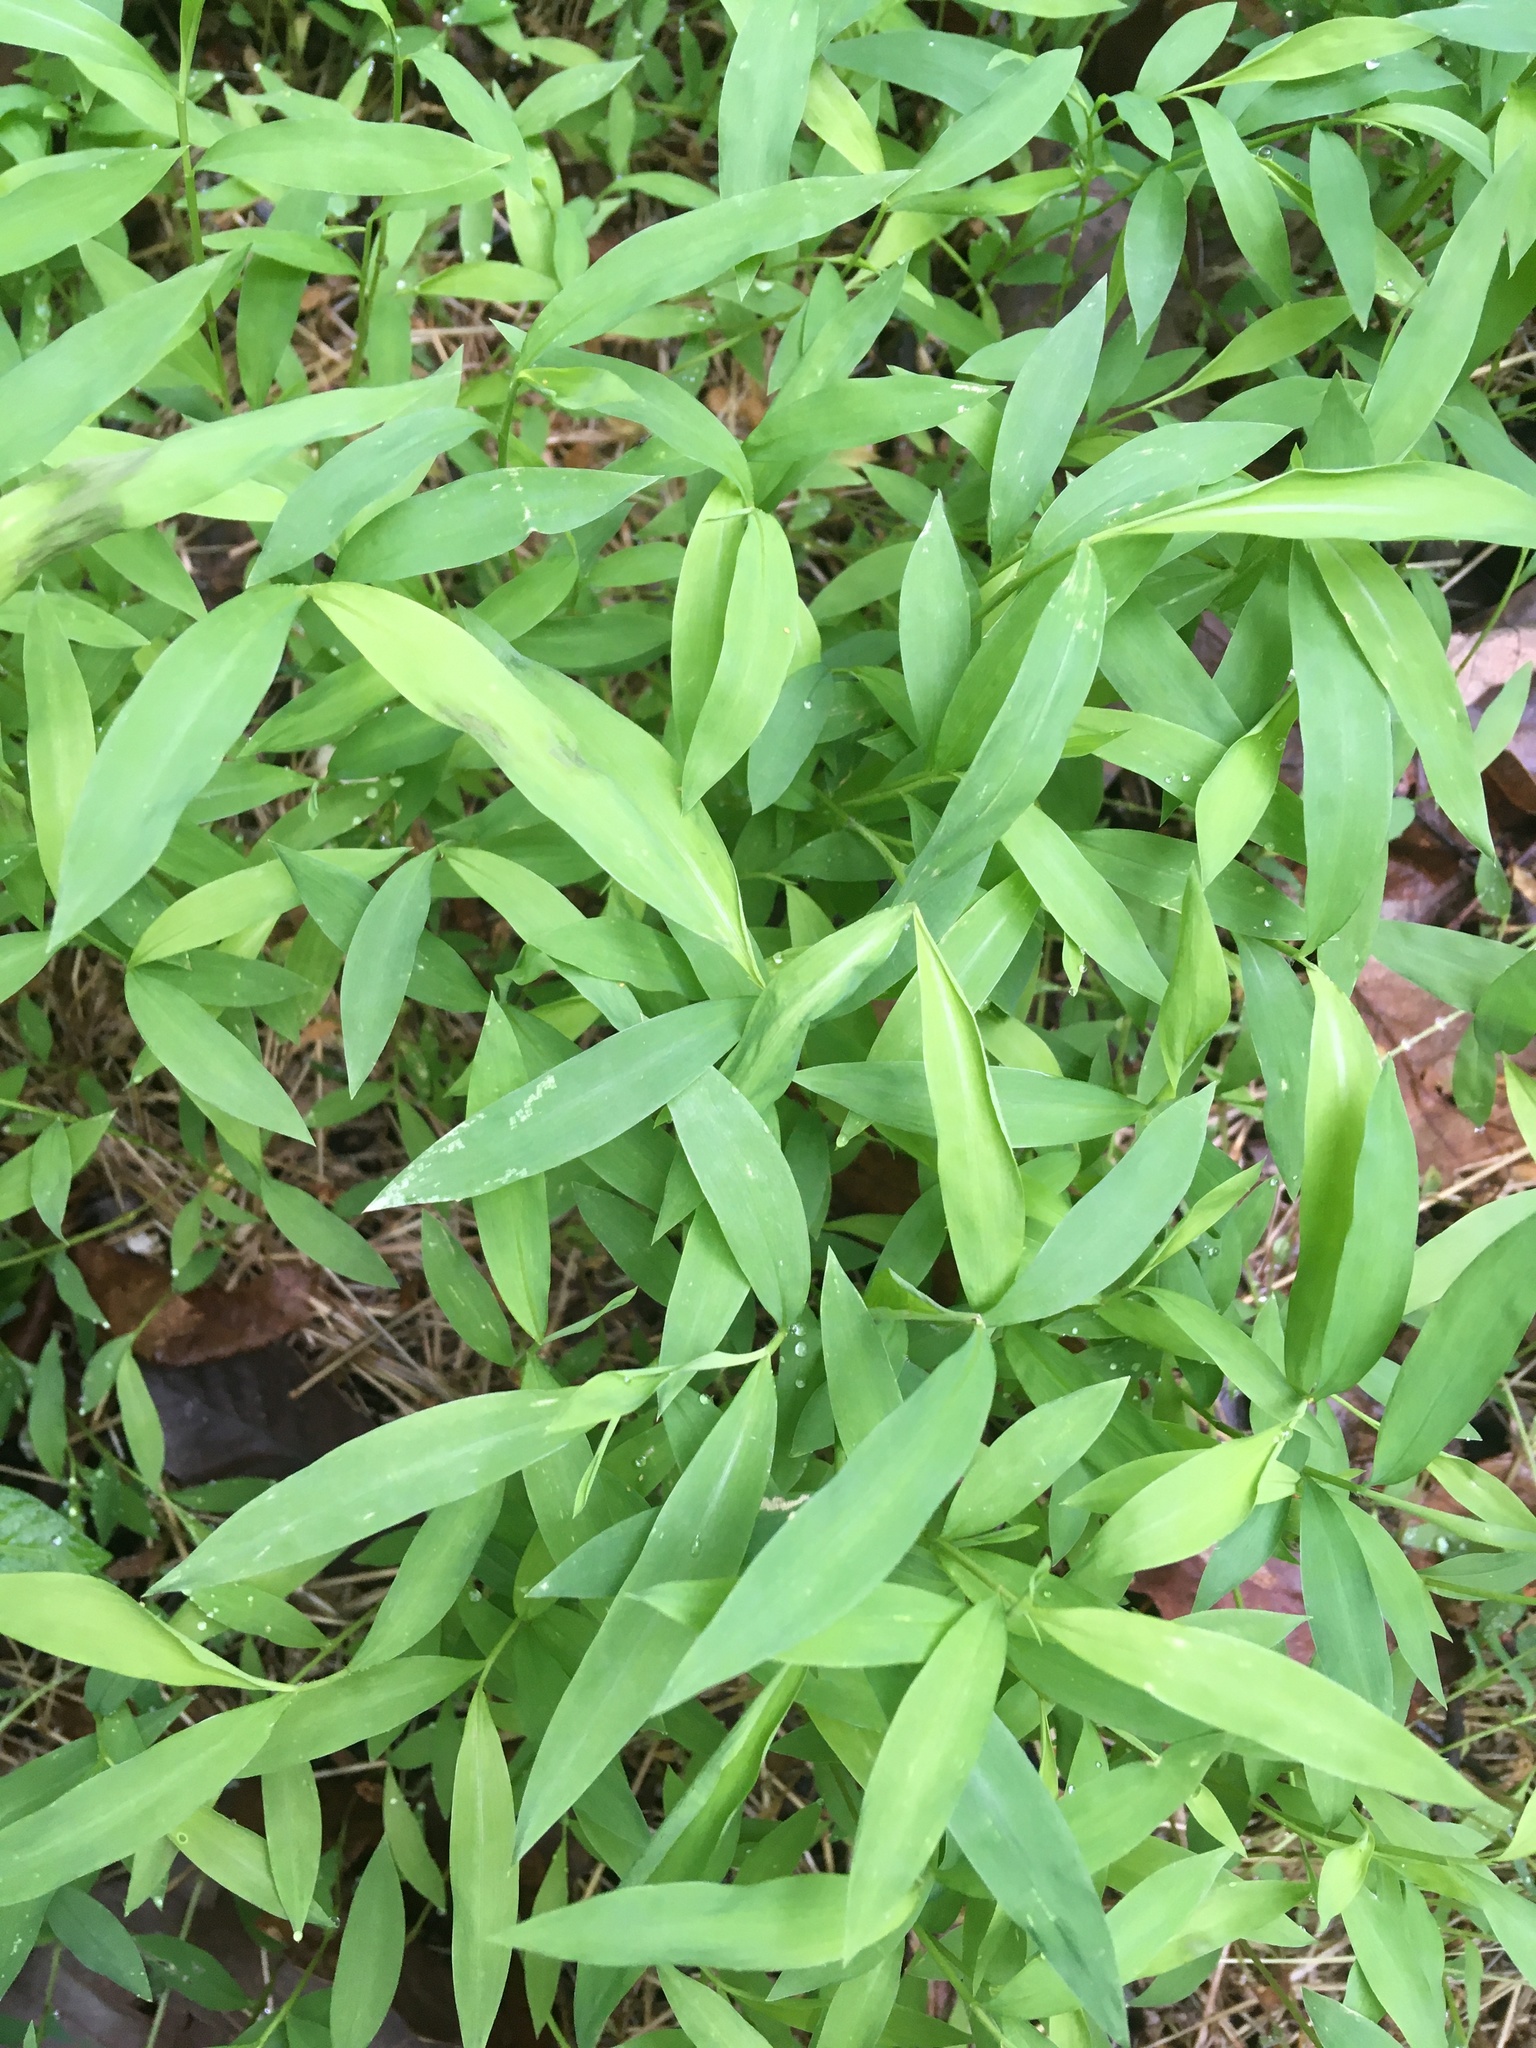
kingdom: Plantae
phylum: Tracheophyta
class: Liliopsida
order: Poales
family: Poaceae
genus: Microstegium
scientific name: Microstegium vimineum
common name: Japanese stiltgrass
